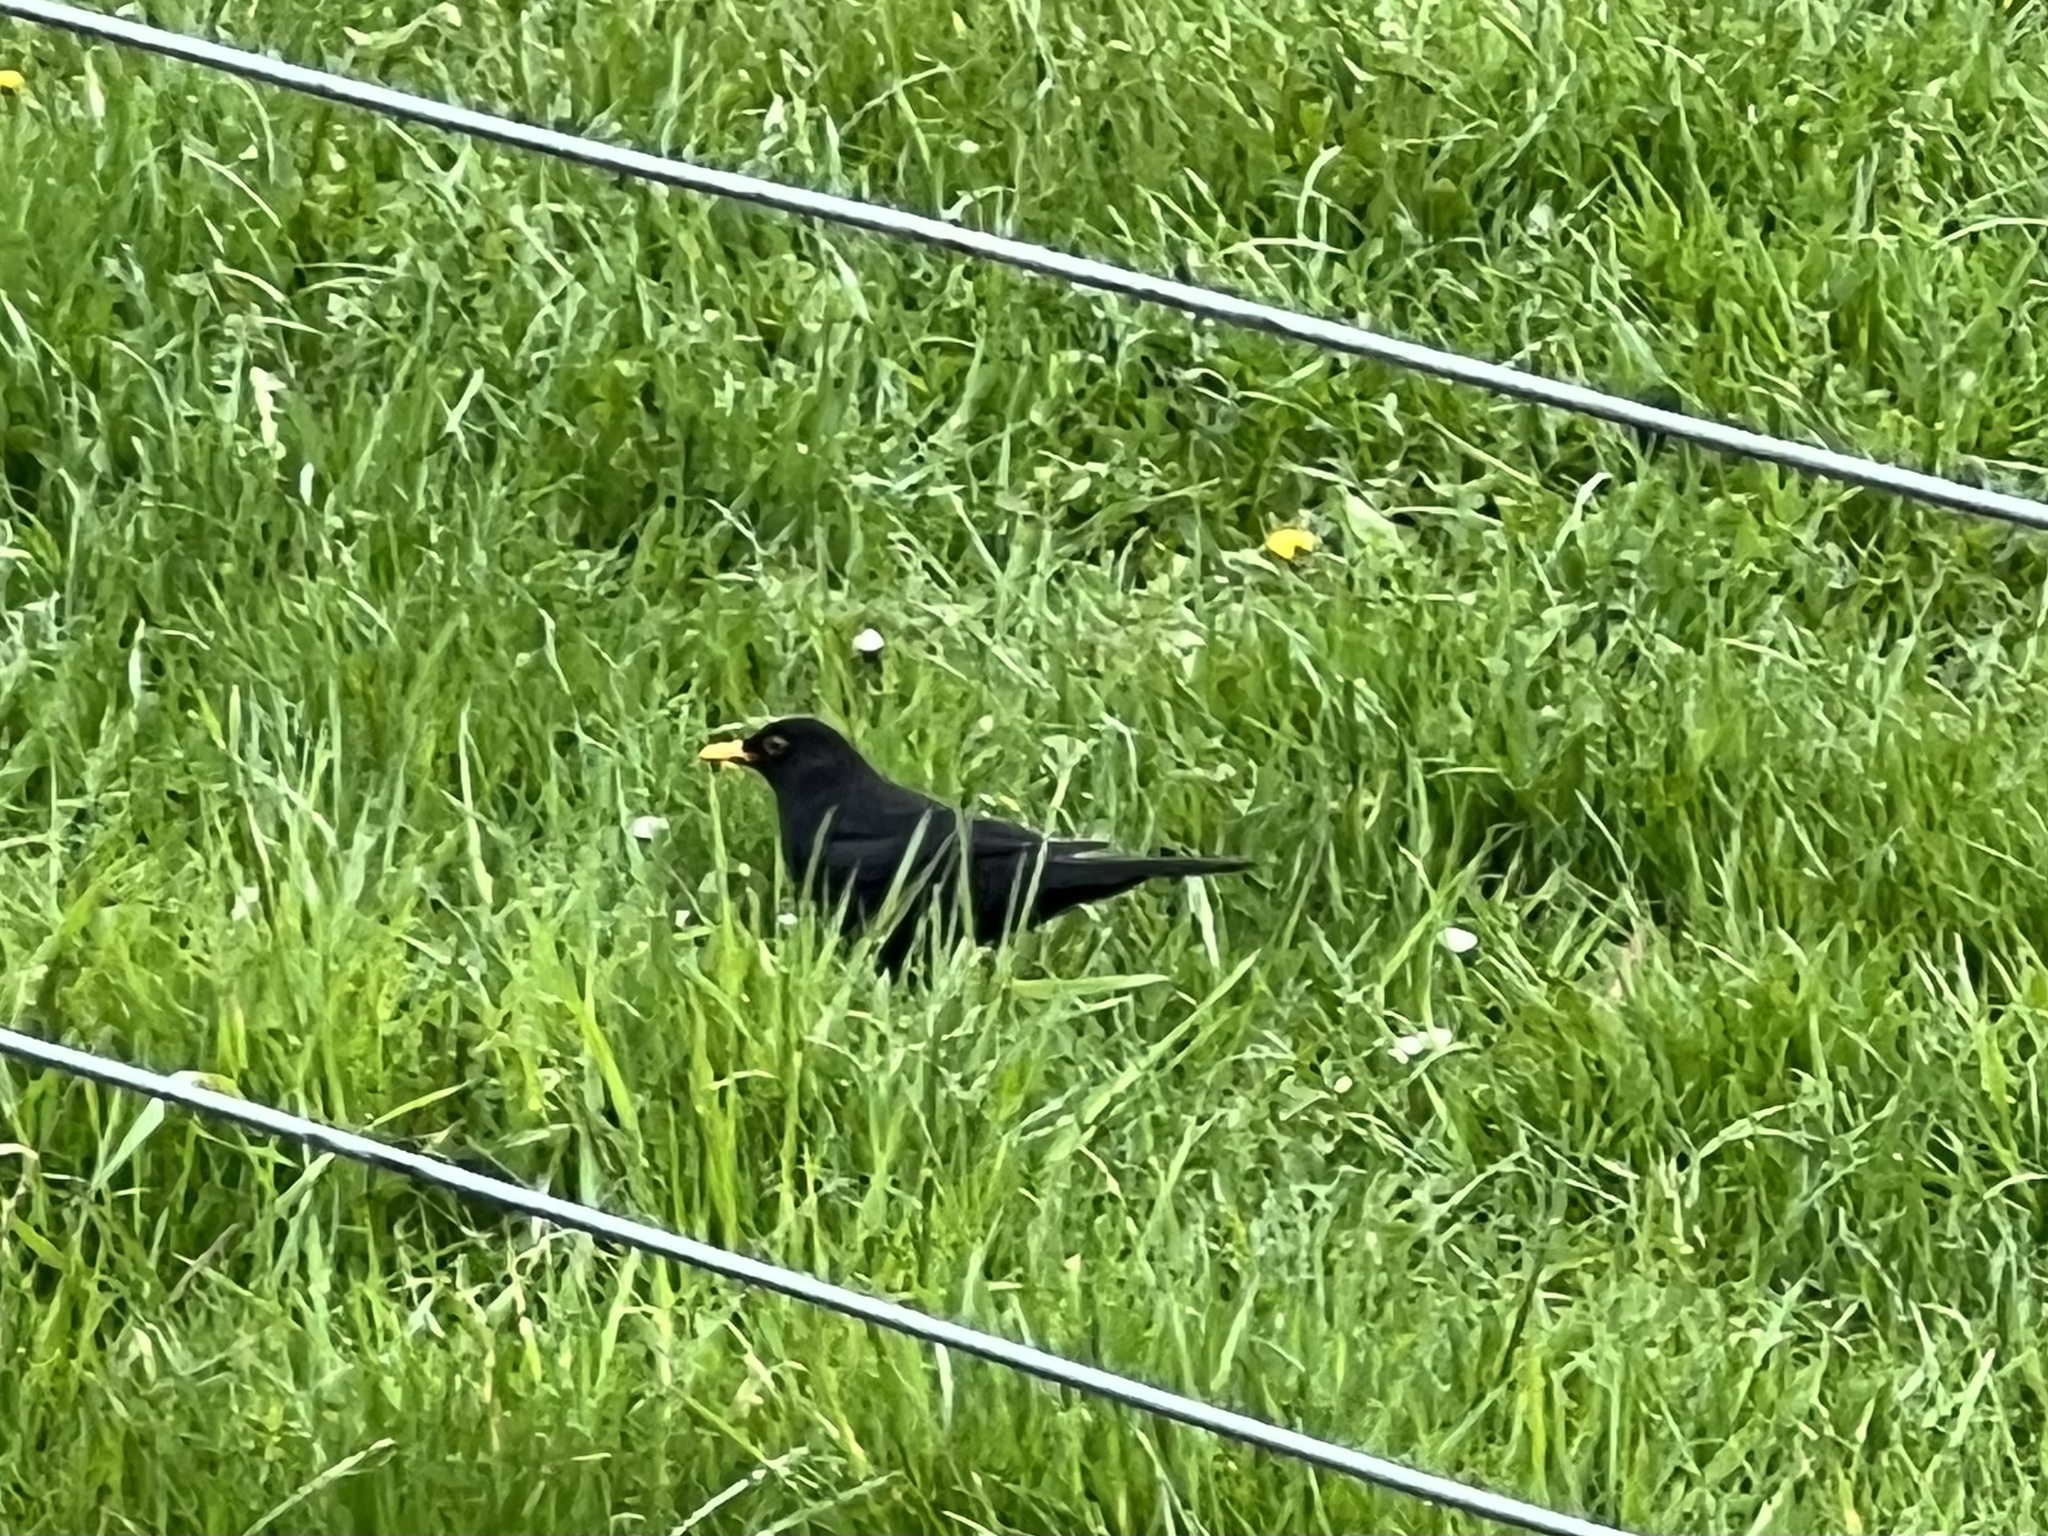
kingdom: Animalia
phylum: Chordata
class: Aves
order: Passeriformes
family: Turdidae
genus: Turdus
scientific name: Turdus merula
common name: Common blackbird
